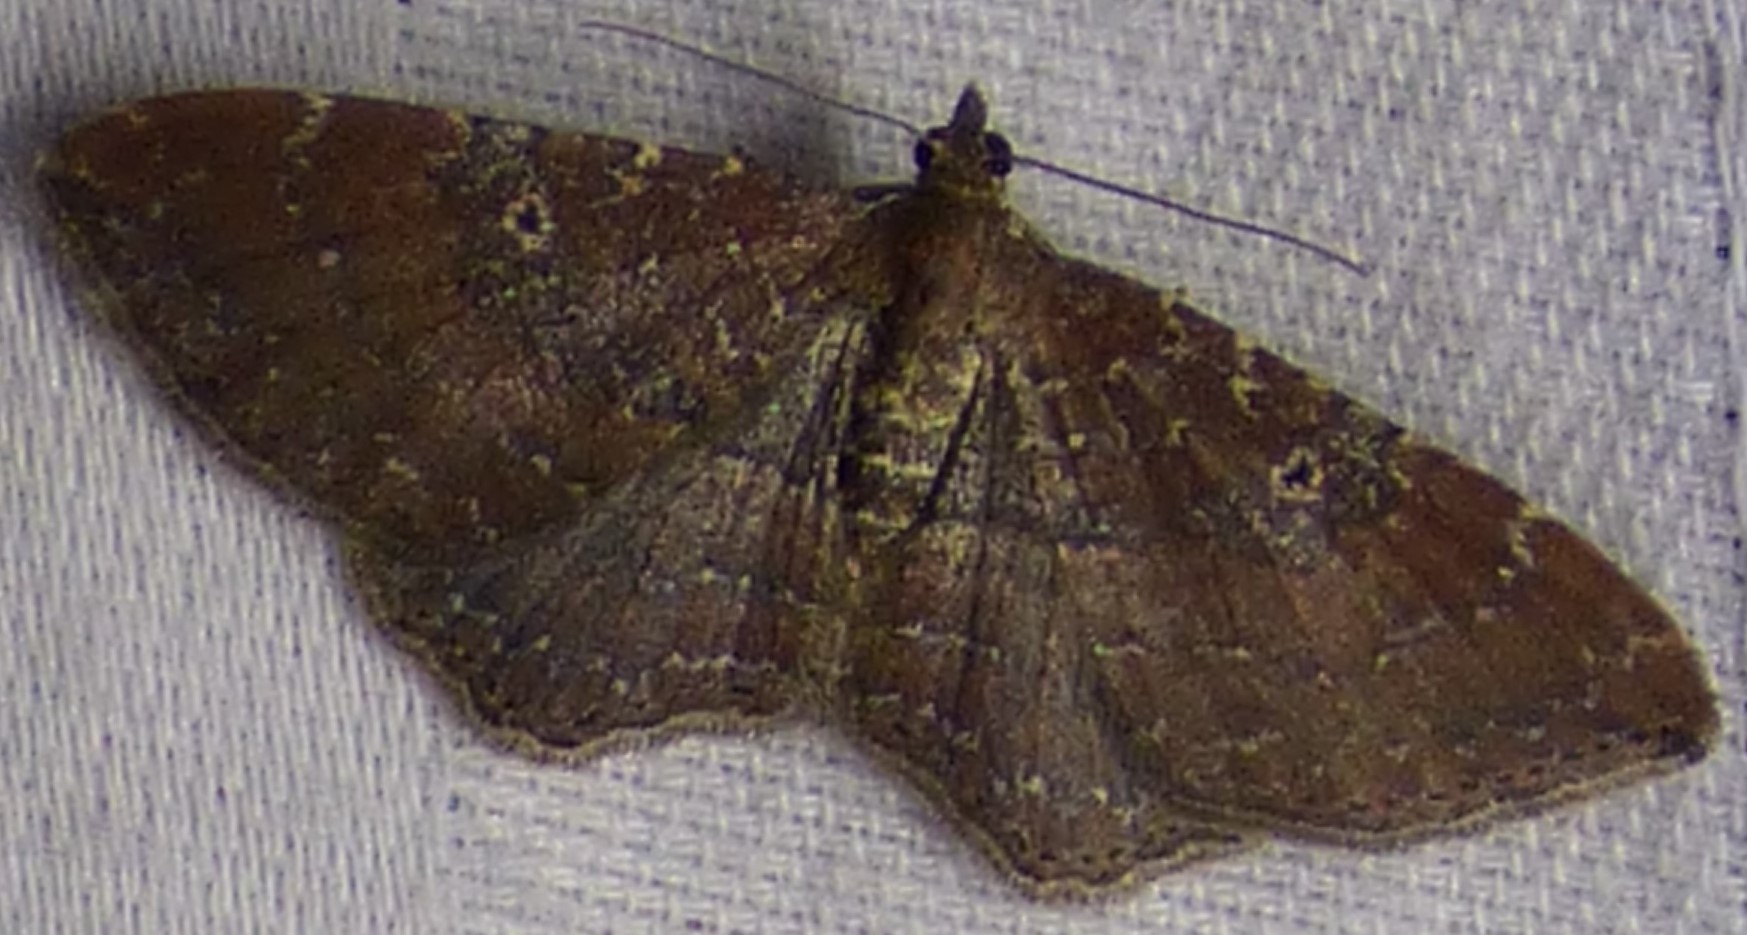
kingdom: Animalia
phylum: Arthropoda
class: Insecta
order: Lepidoptera
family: Geometridae
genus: Orthonama
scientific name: Orthonama obstipata
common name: The gem
